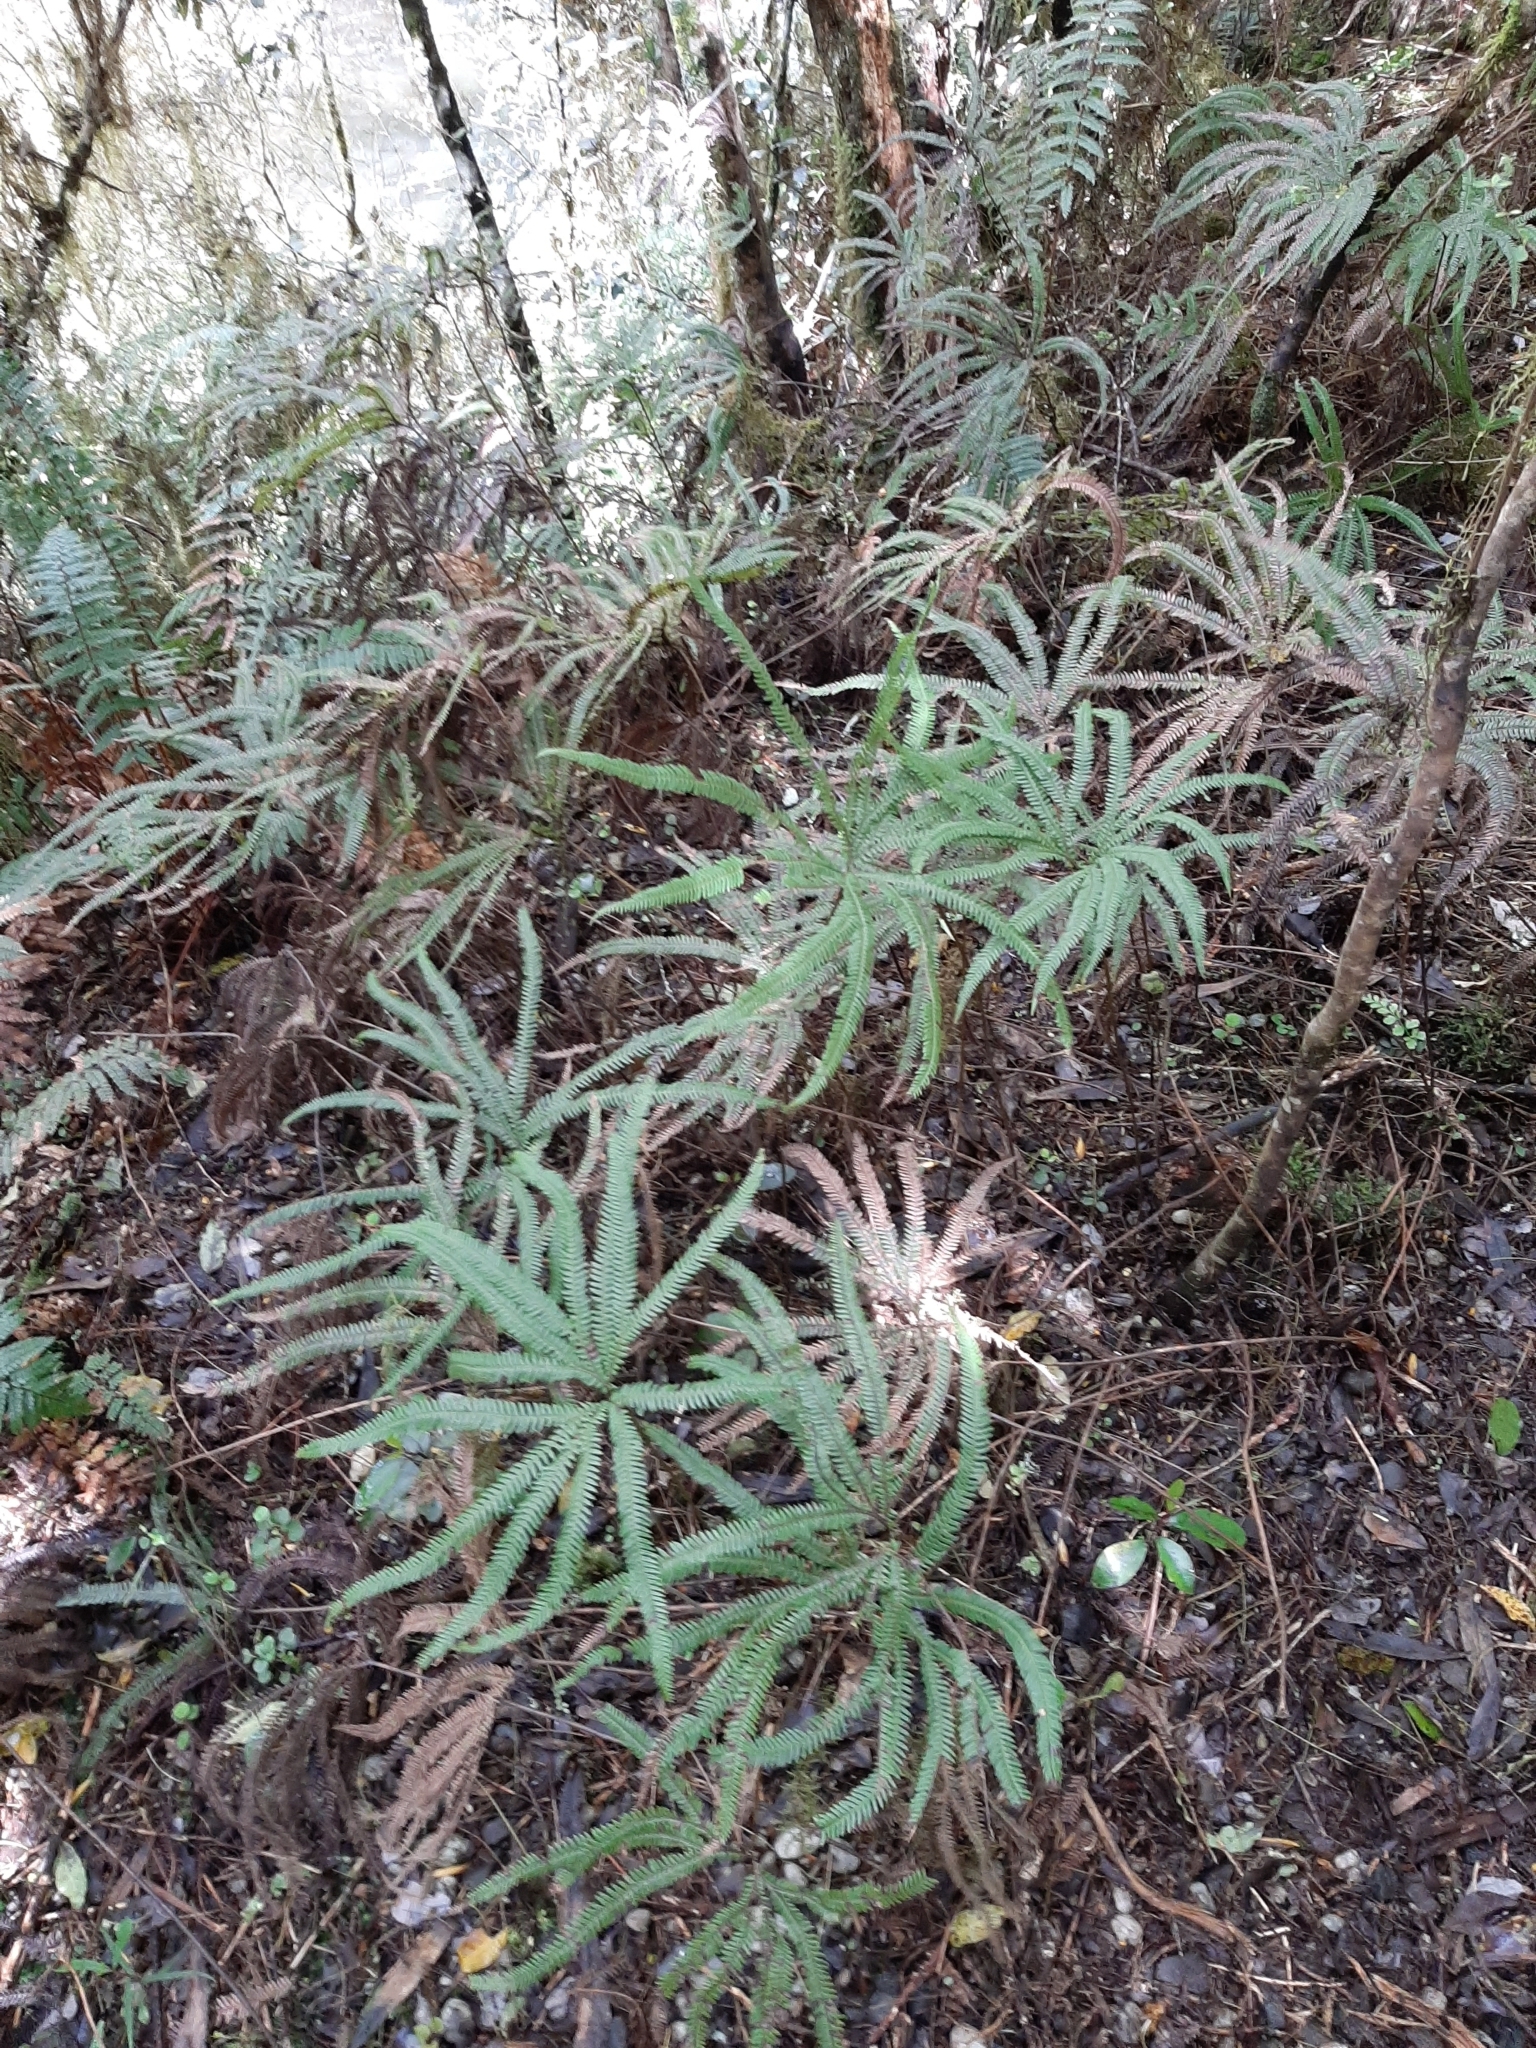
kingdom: Plantae
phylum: Tracheophyta
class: Polypodiopsida
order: Gleicheniales
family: Gleicheniaceae
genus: Sticherus
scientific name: Sticherus cunninghamii
